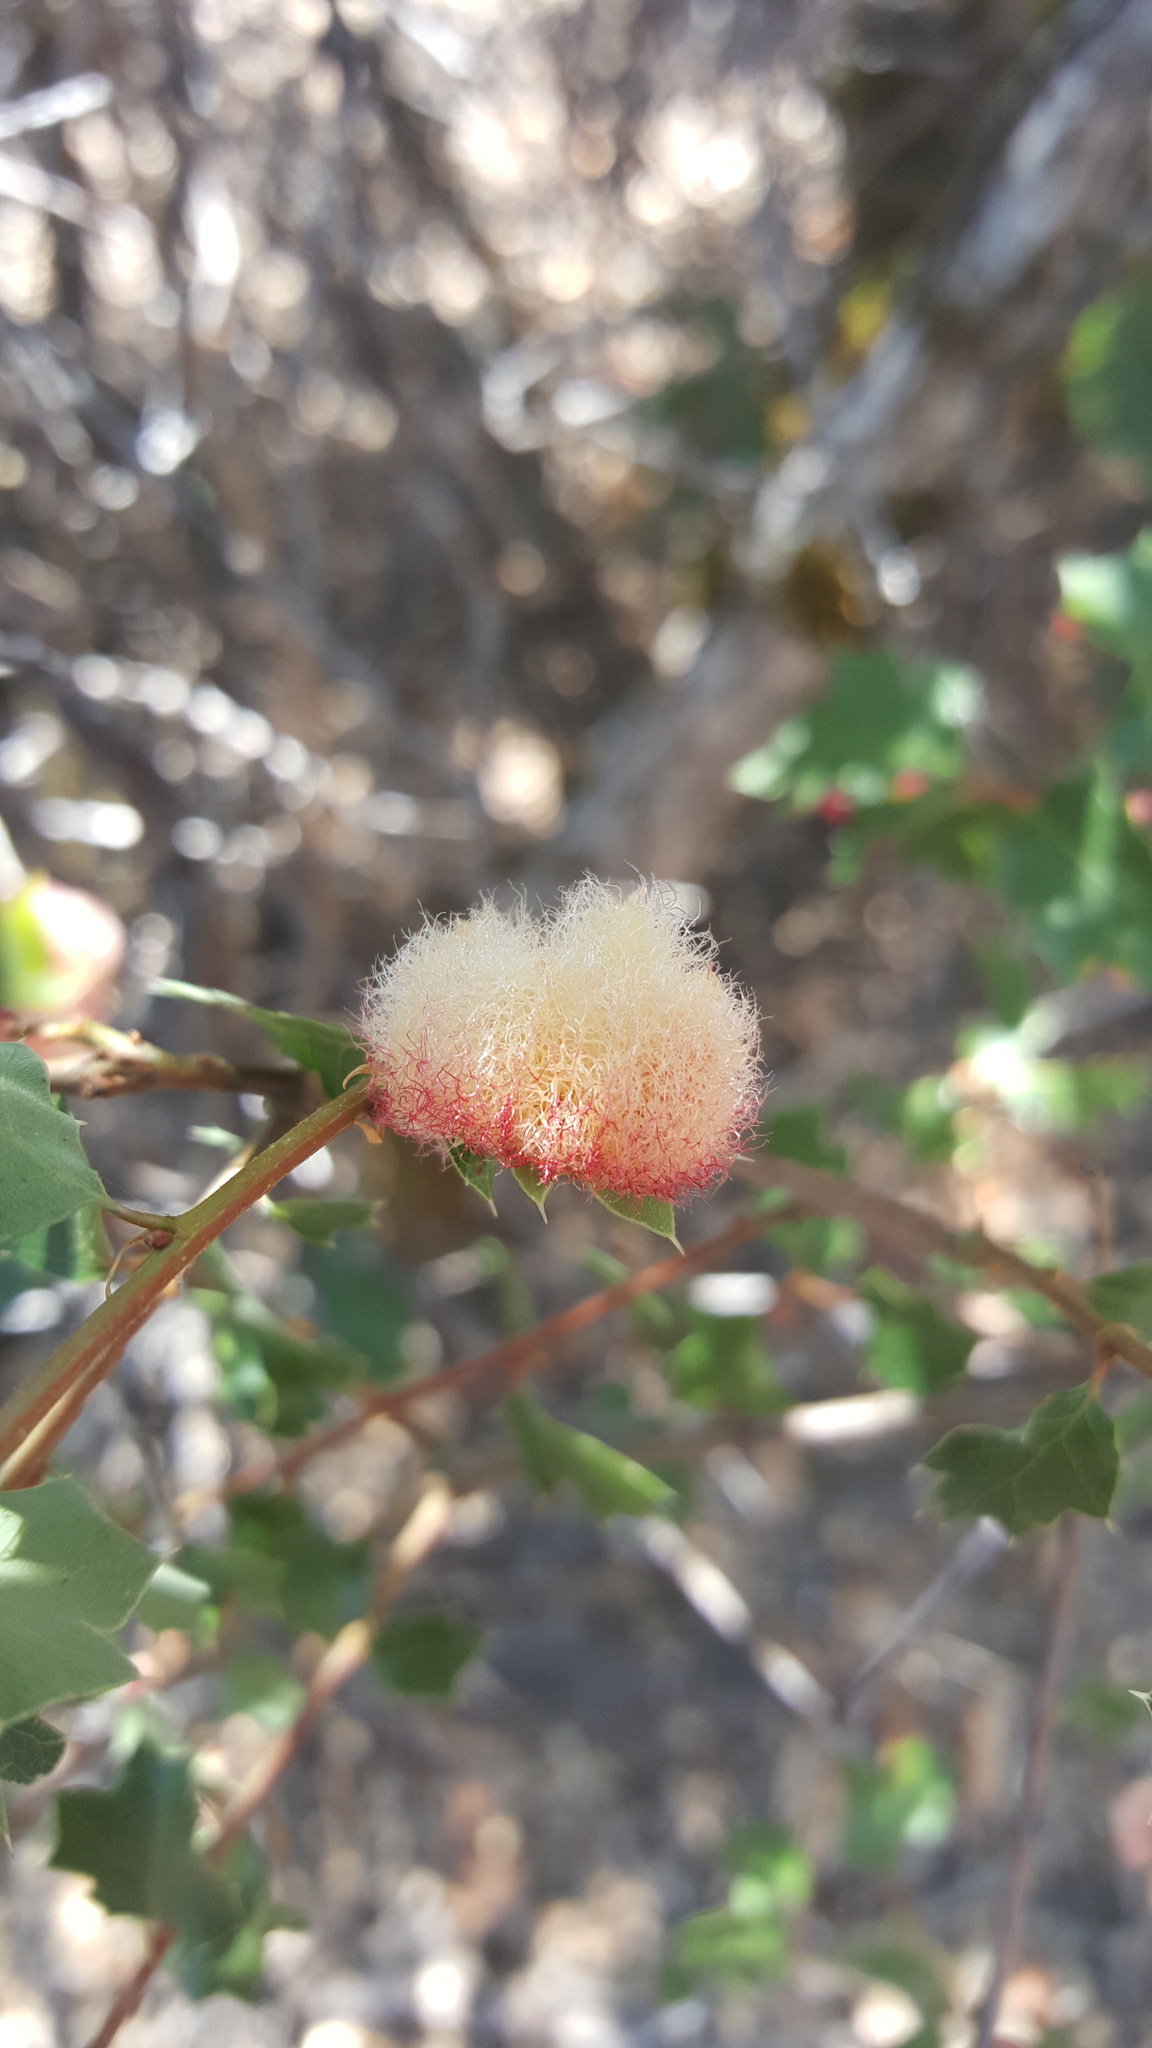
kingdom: Animalia
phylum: Arthropoda
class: Insecta
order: Hymenoptera
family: Cynipidae
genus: Andricus
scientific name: Andricus
